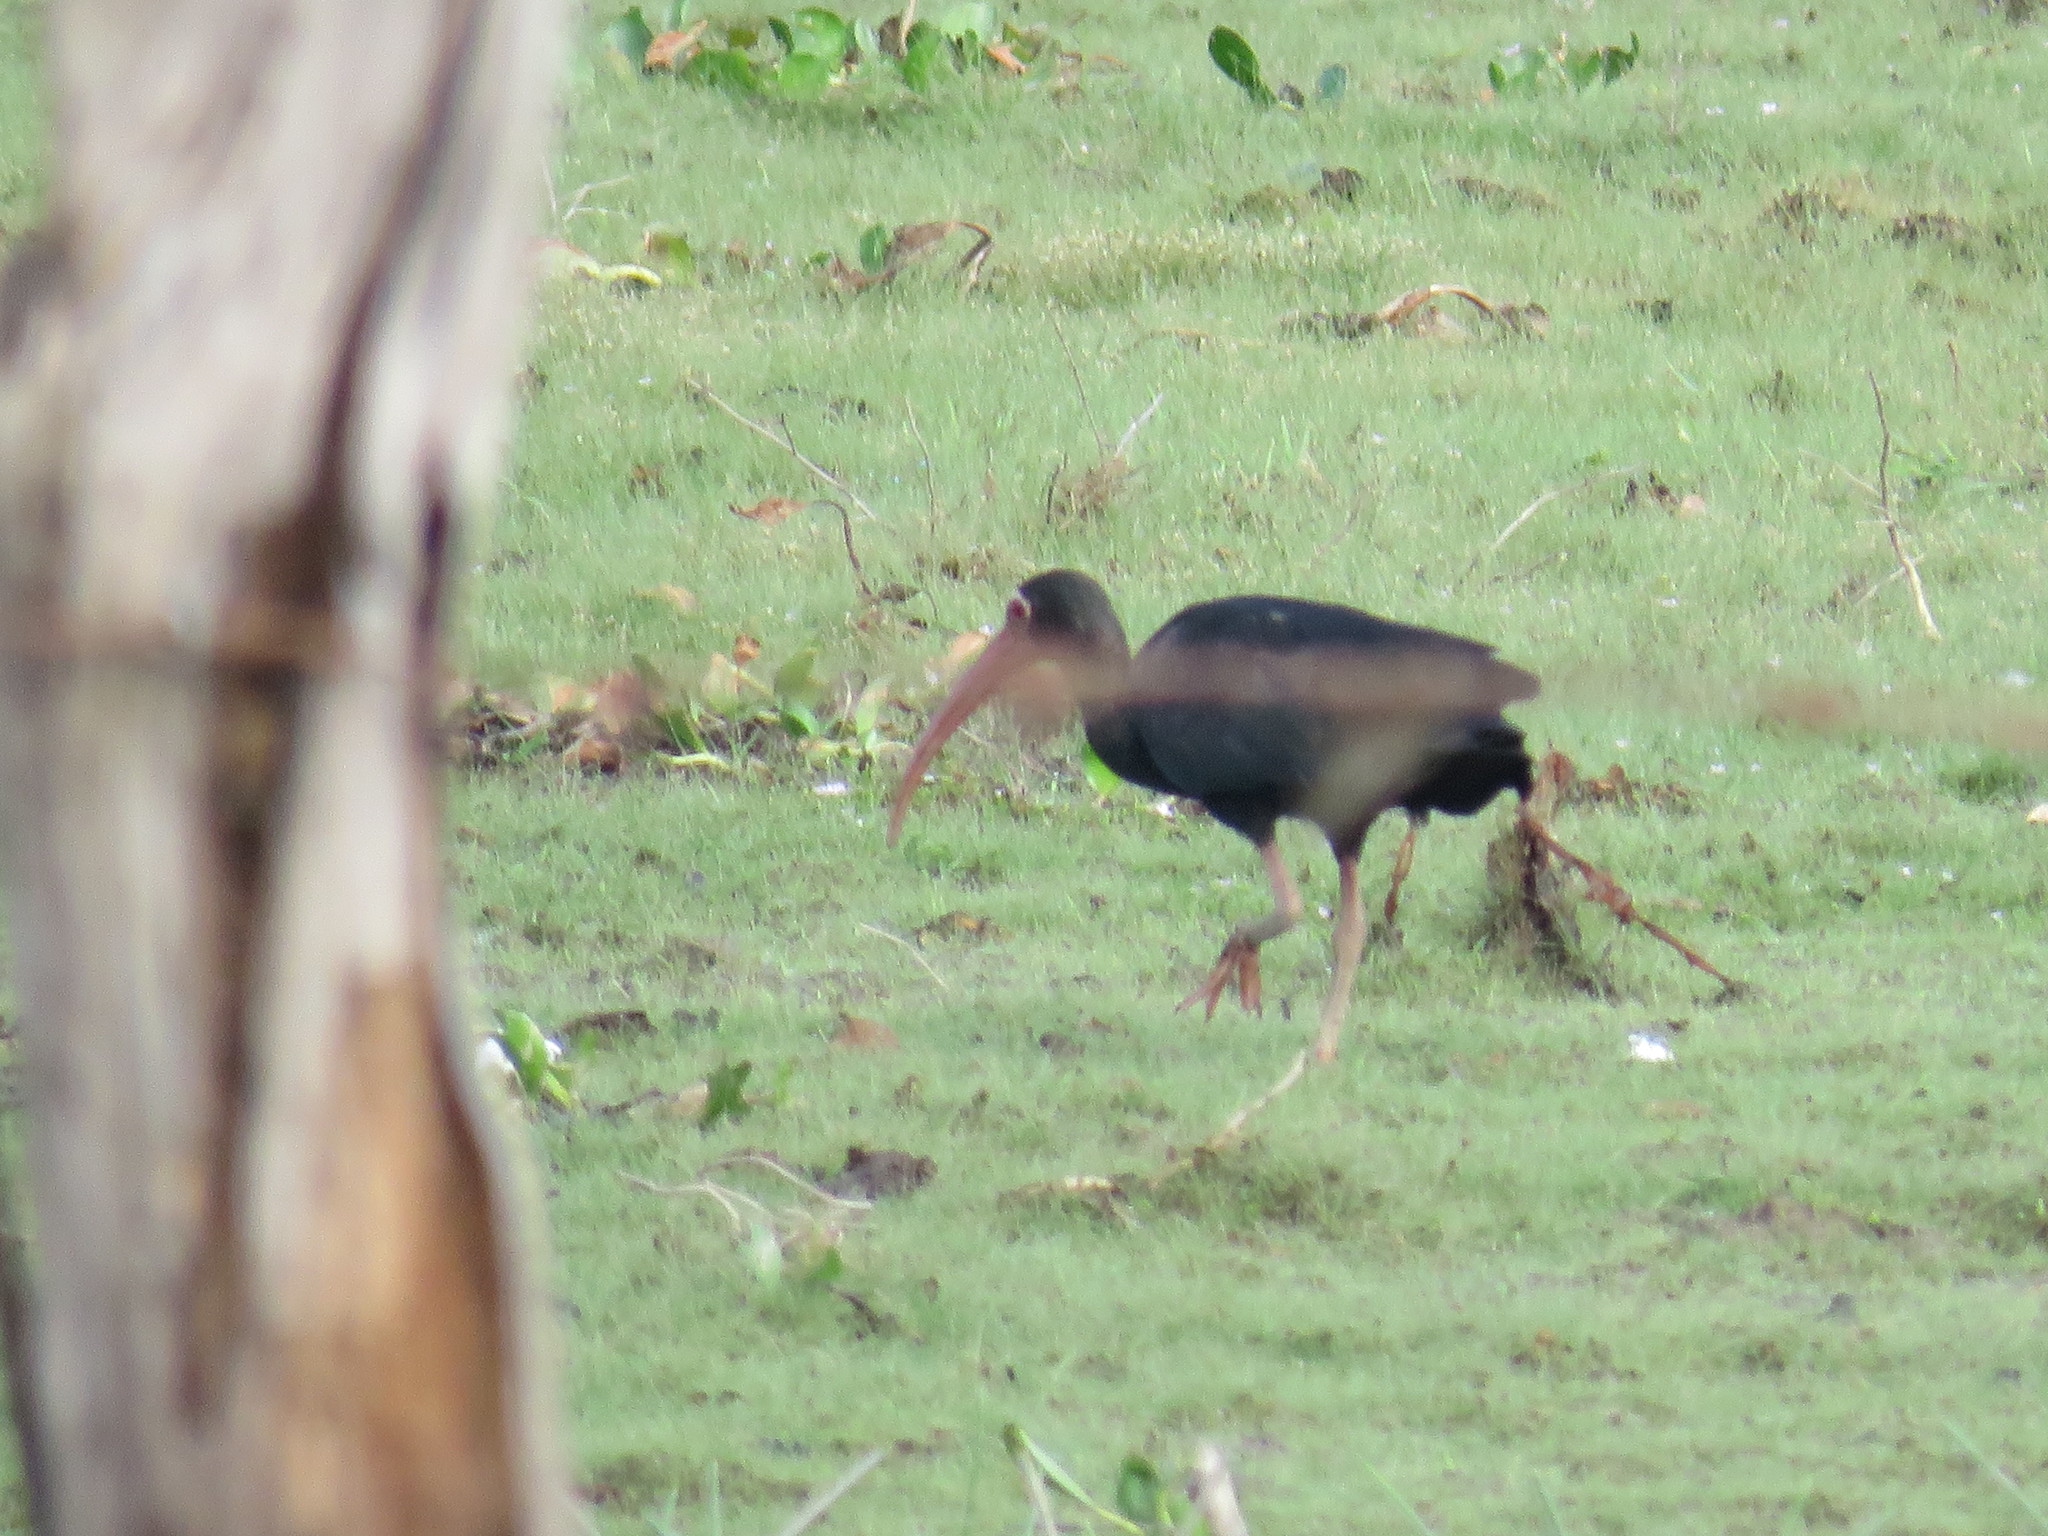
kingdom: Animalia
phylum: Chordata
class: Aves
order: Pelecaniformes
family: Threskiornithidae
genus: Phimosus
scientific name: Phimosus infuscatus
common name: Bare-faced ibis
